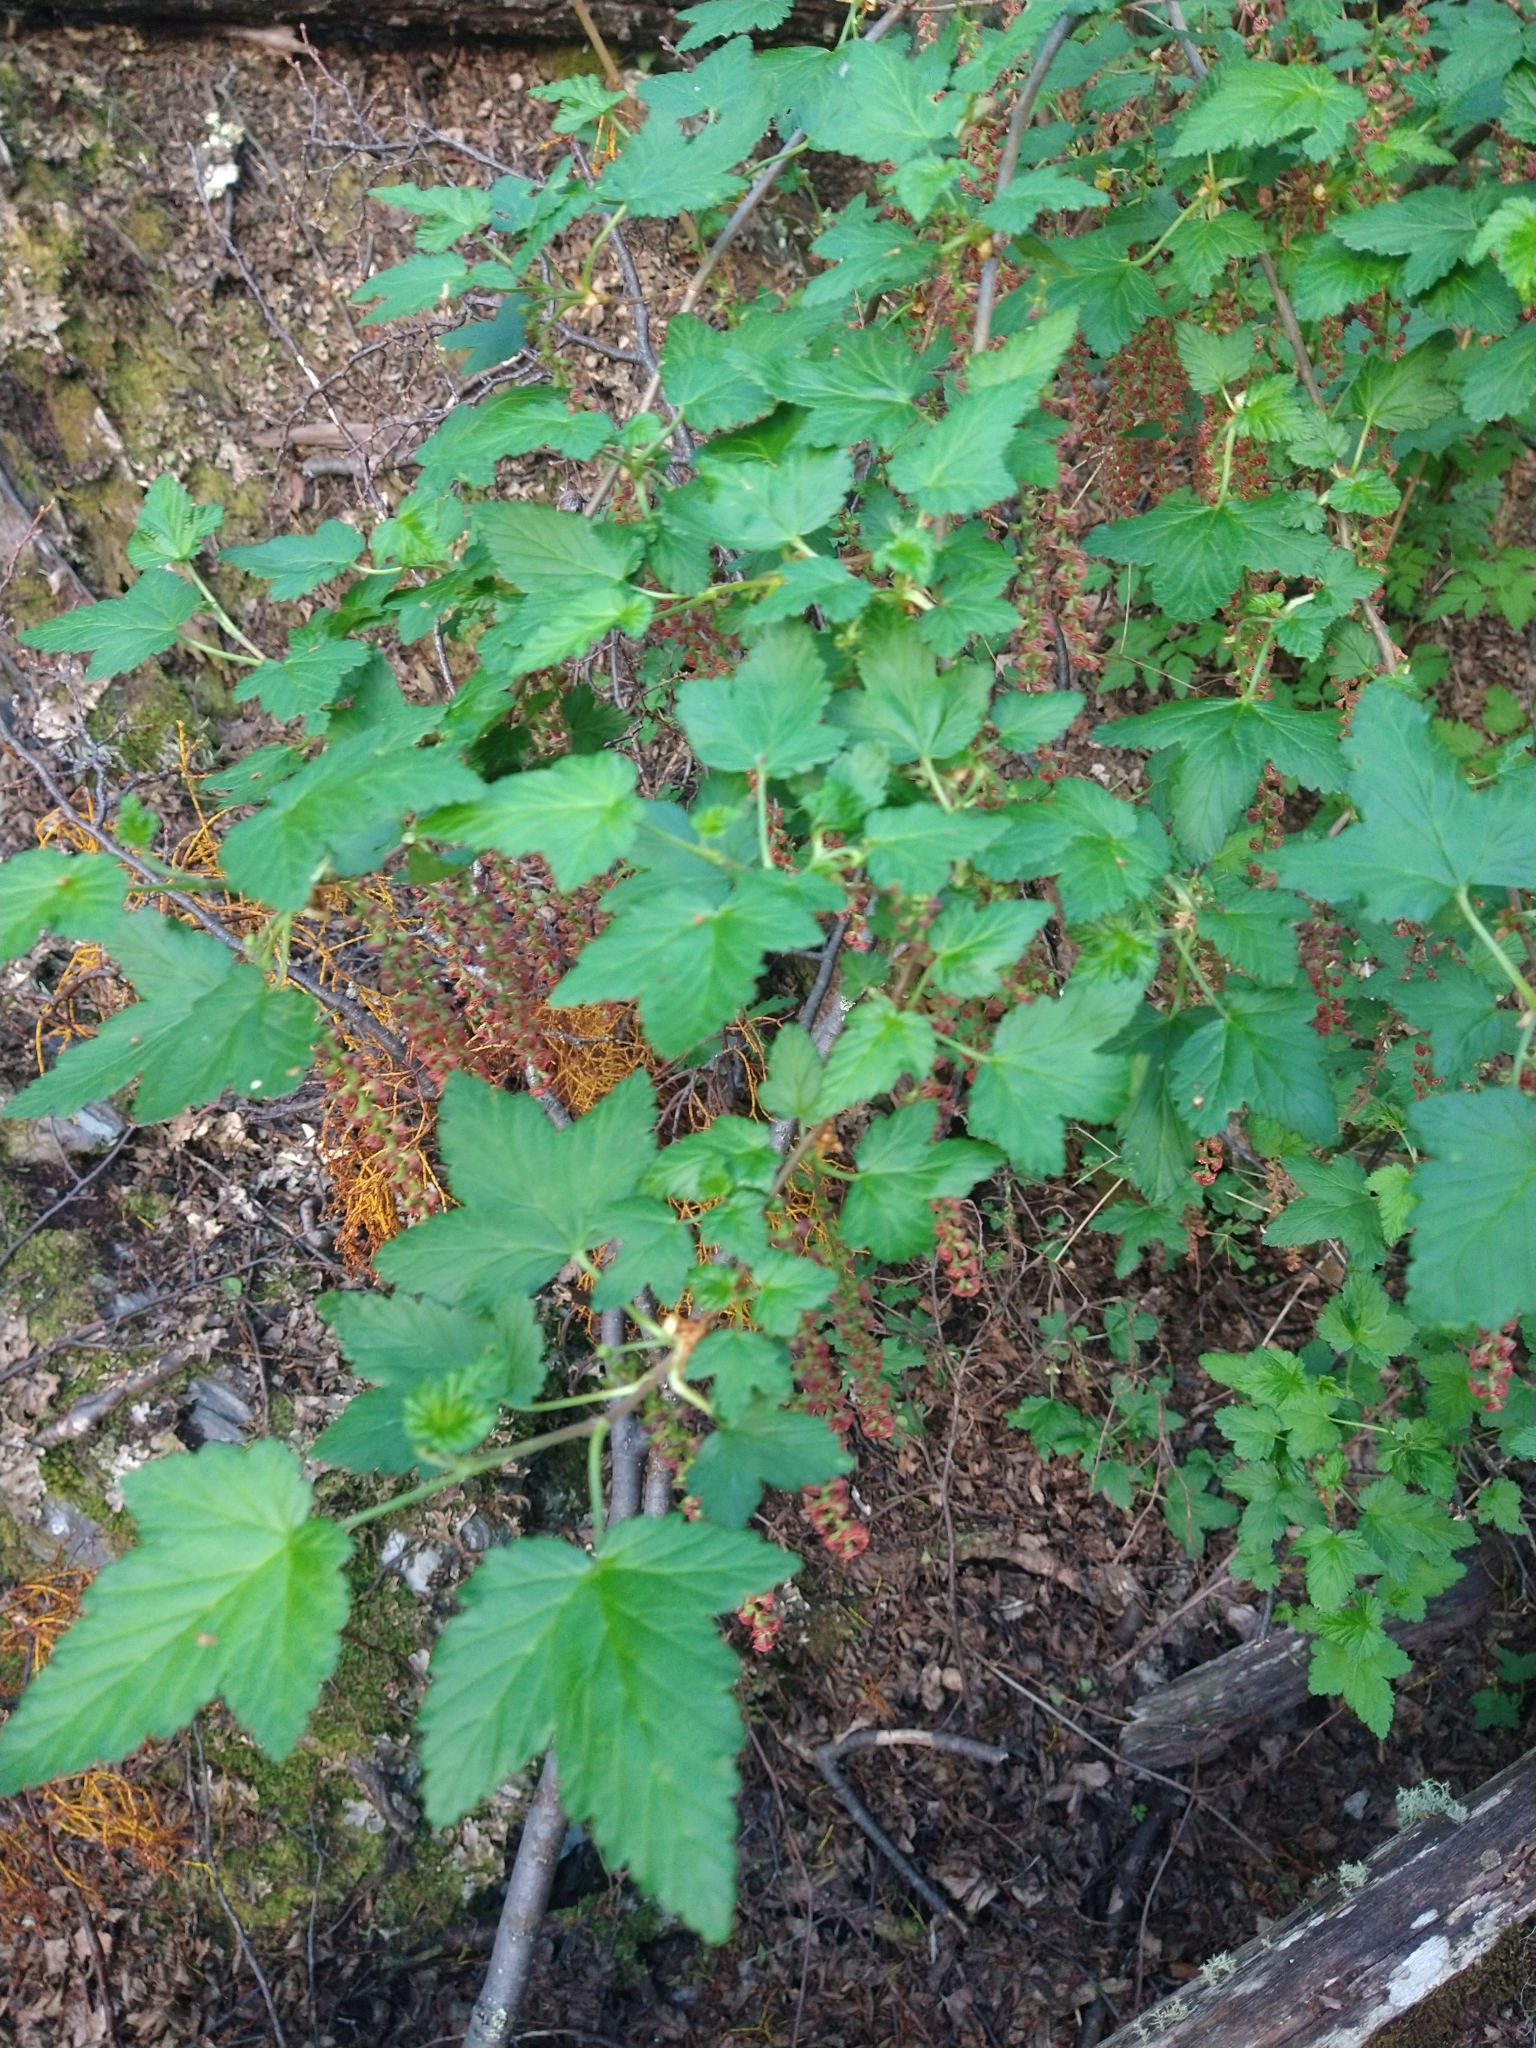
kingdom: Plantae
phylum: Tracheophyta
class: Magnoliopsida
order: Saxifragales
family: Grossulariaceae
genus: Ribes
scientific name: Ribes magellanicum
